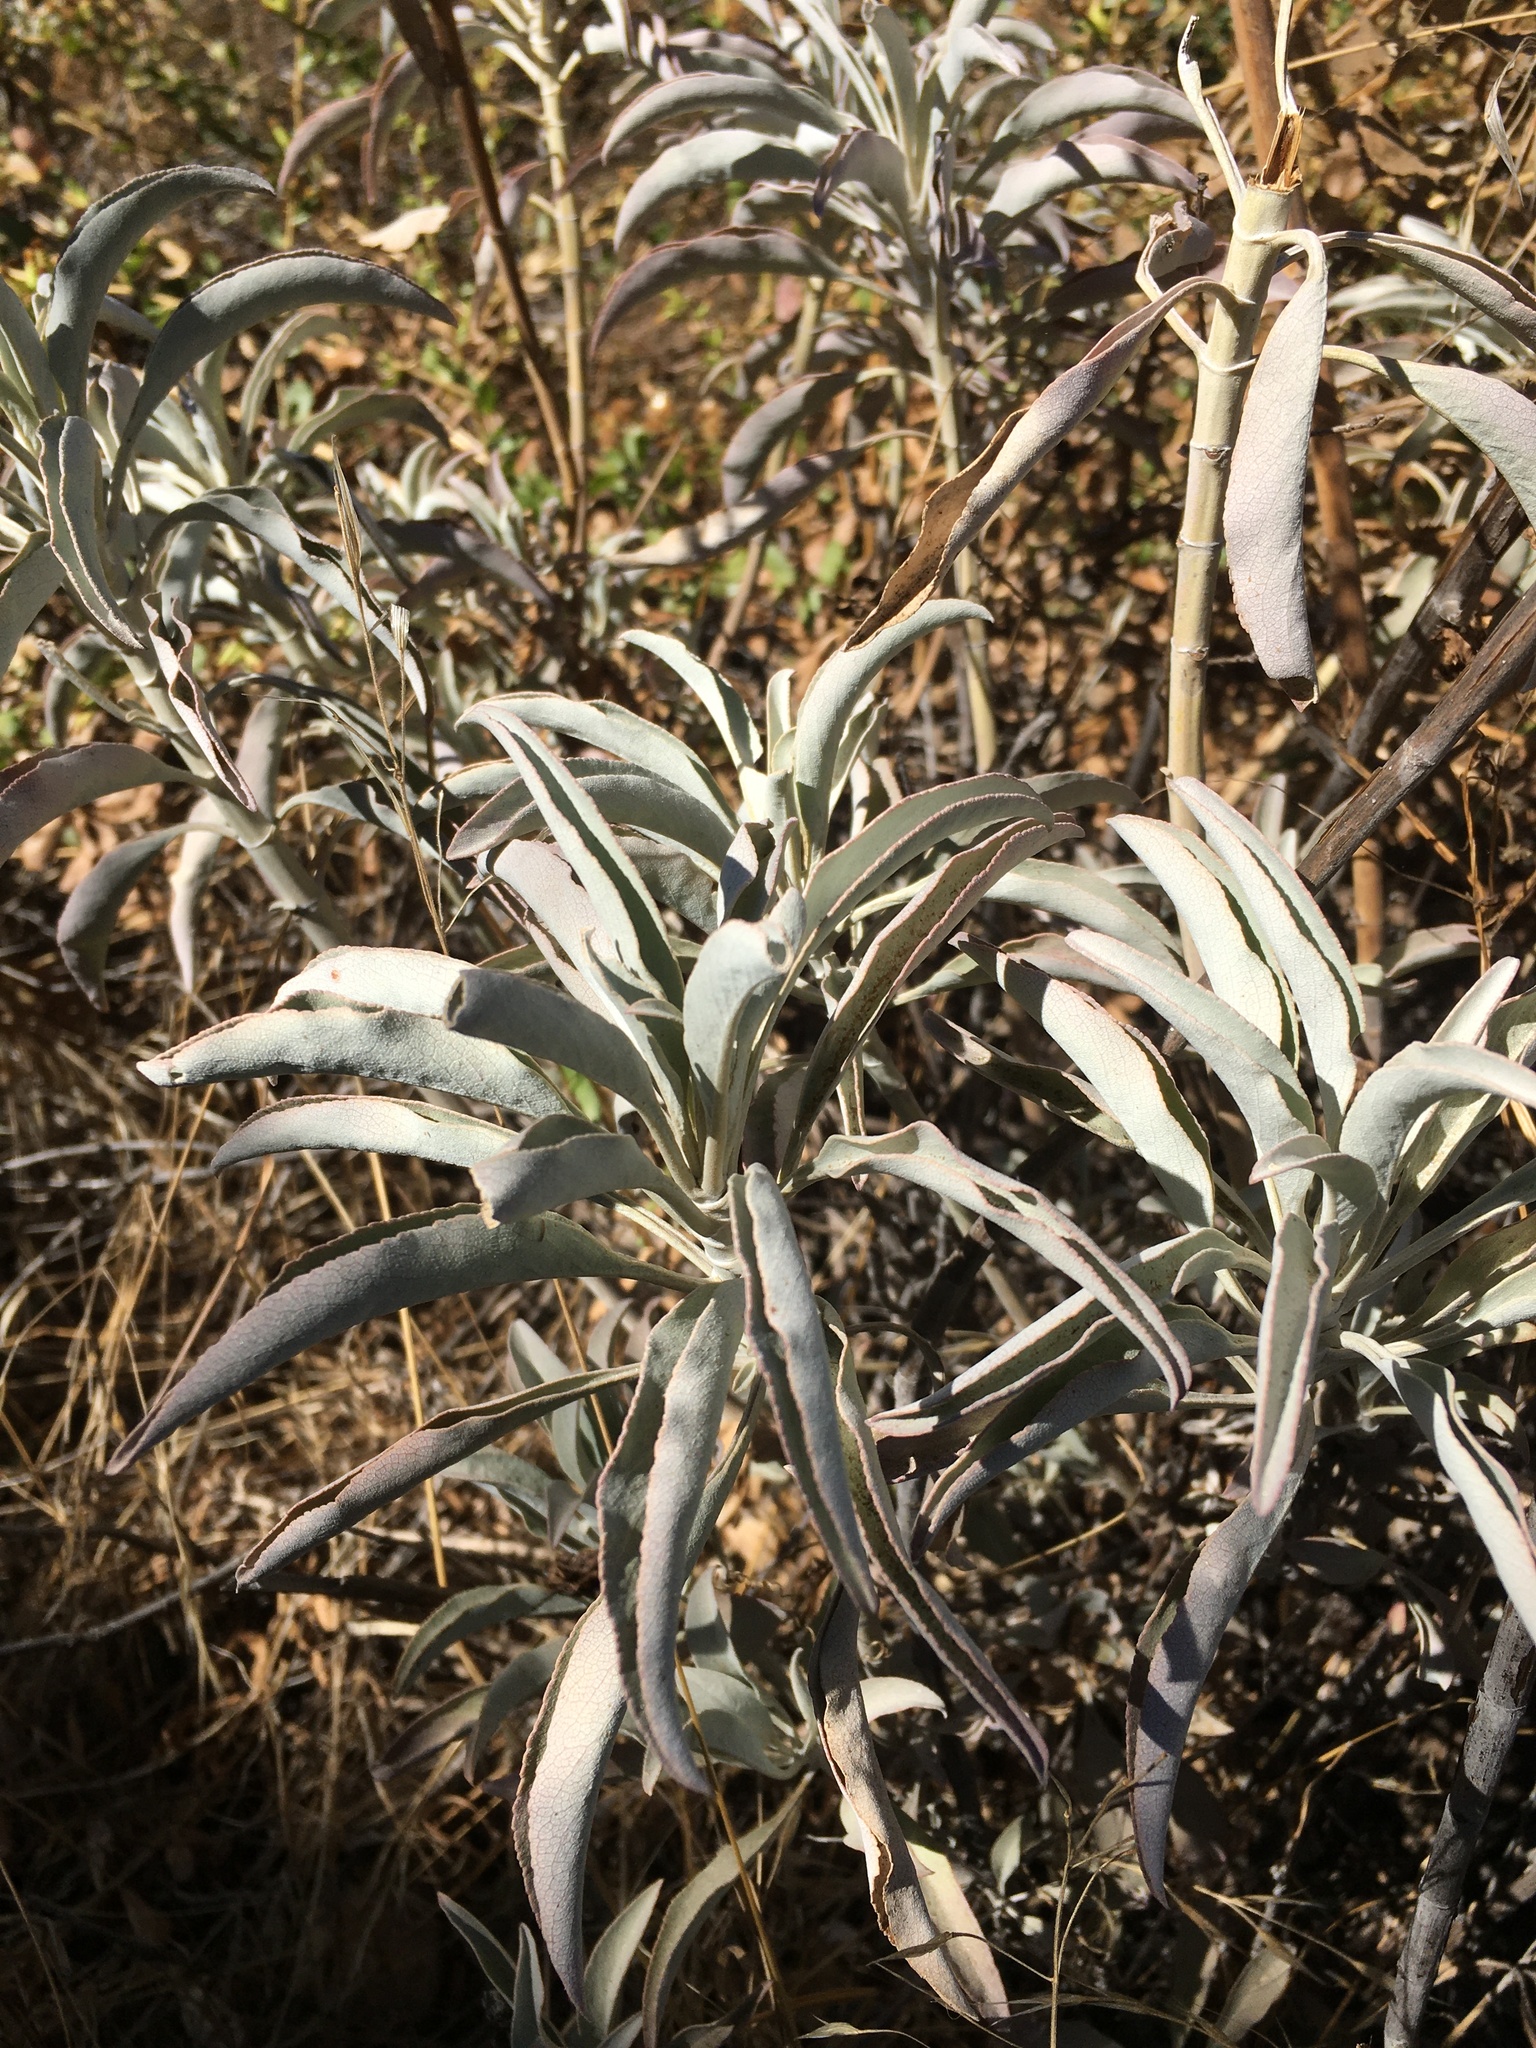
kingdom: Plantae
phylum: Tracheophyta
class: Magnoliopsida
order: Lamiales
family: Lamiaceae
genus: Salvia
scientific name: Salvia apiana
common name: White sage
